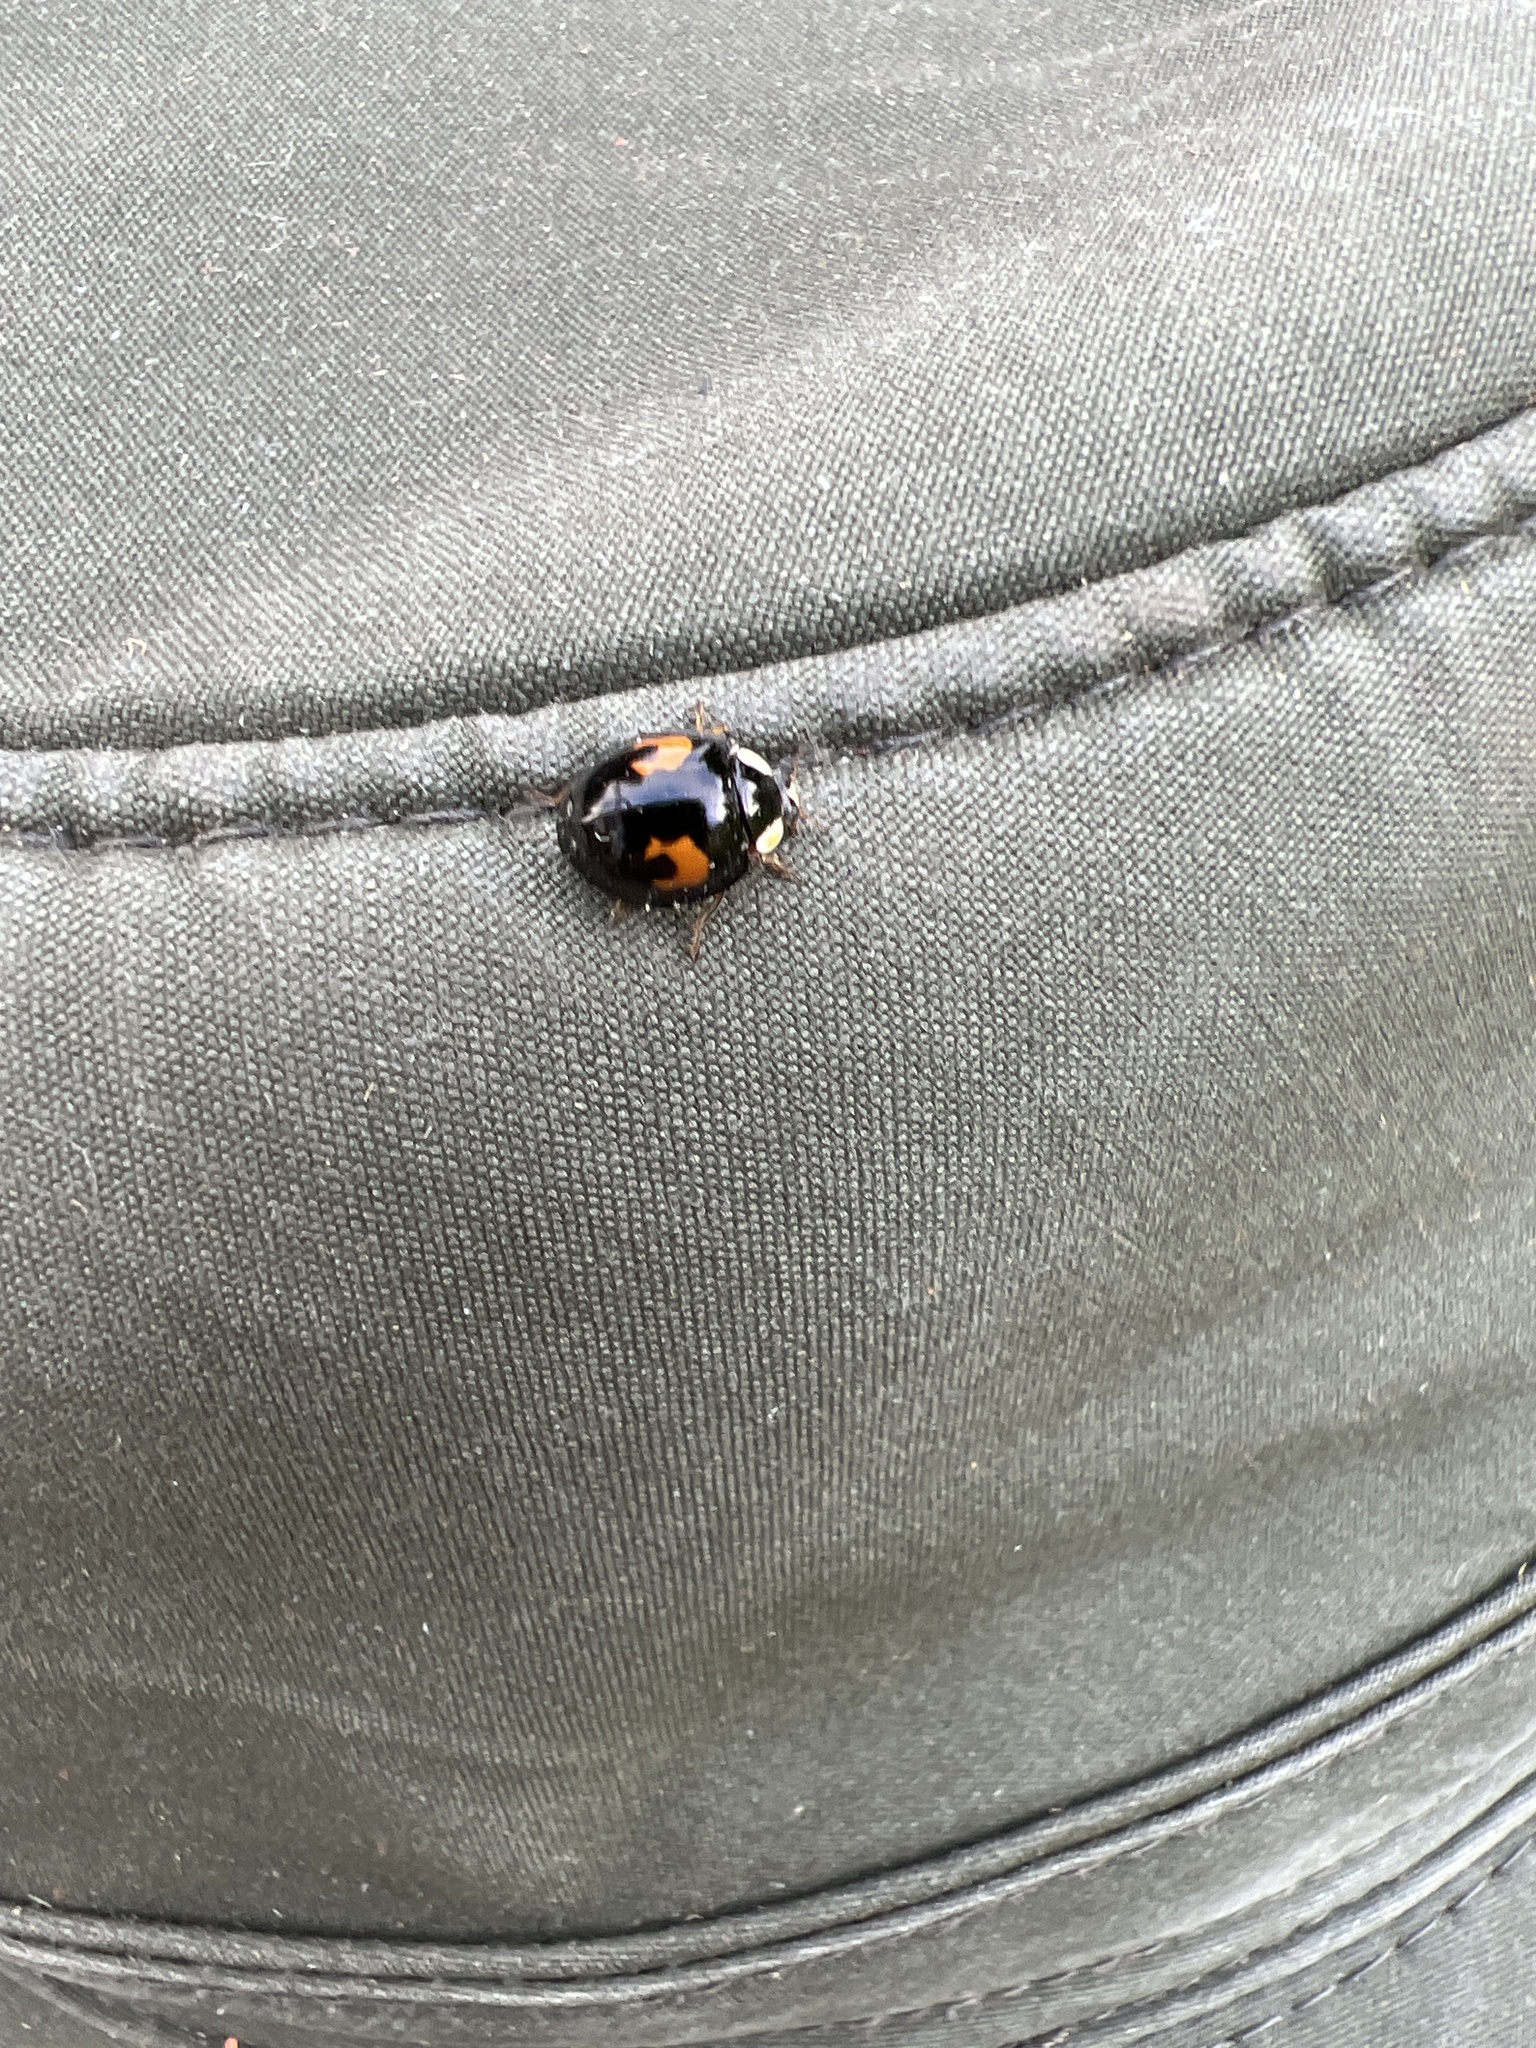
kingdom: Animalia
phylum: Arthropoda
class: Insecta
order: Coleoptera
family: Coccinellidae
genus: Harmonia
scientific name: Harmonia axyridis
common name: Harlequin ladybird
